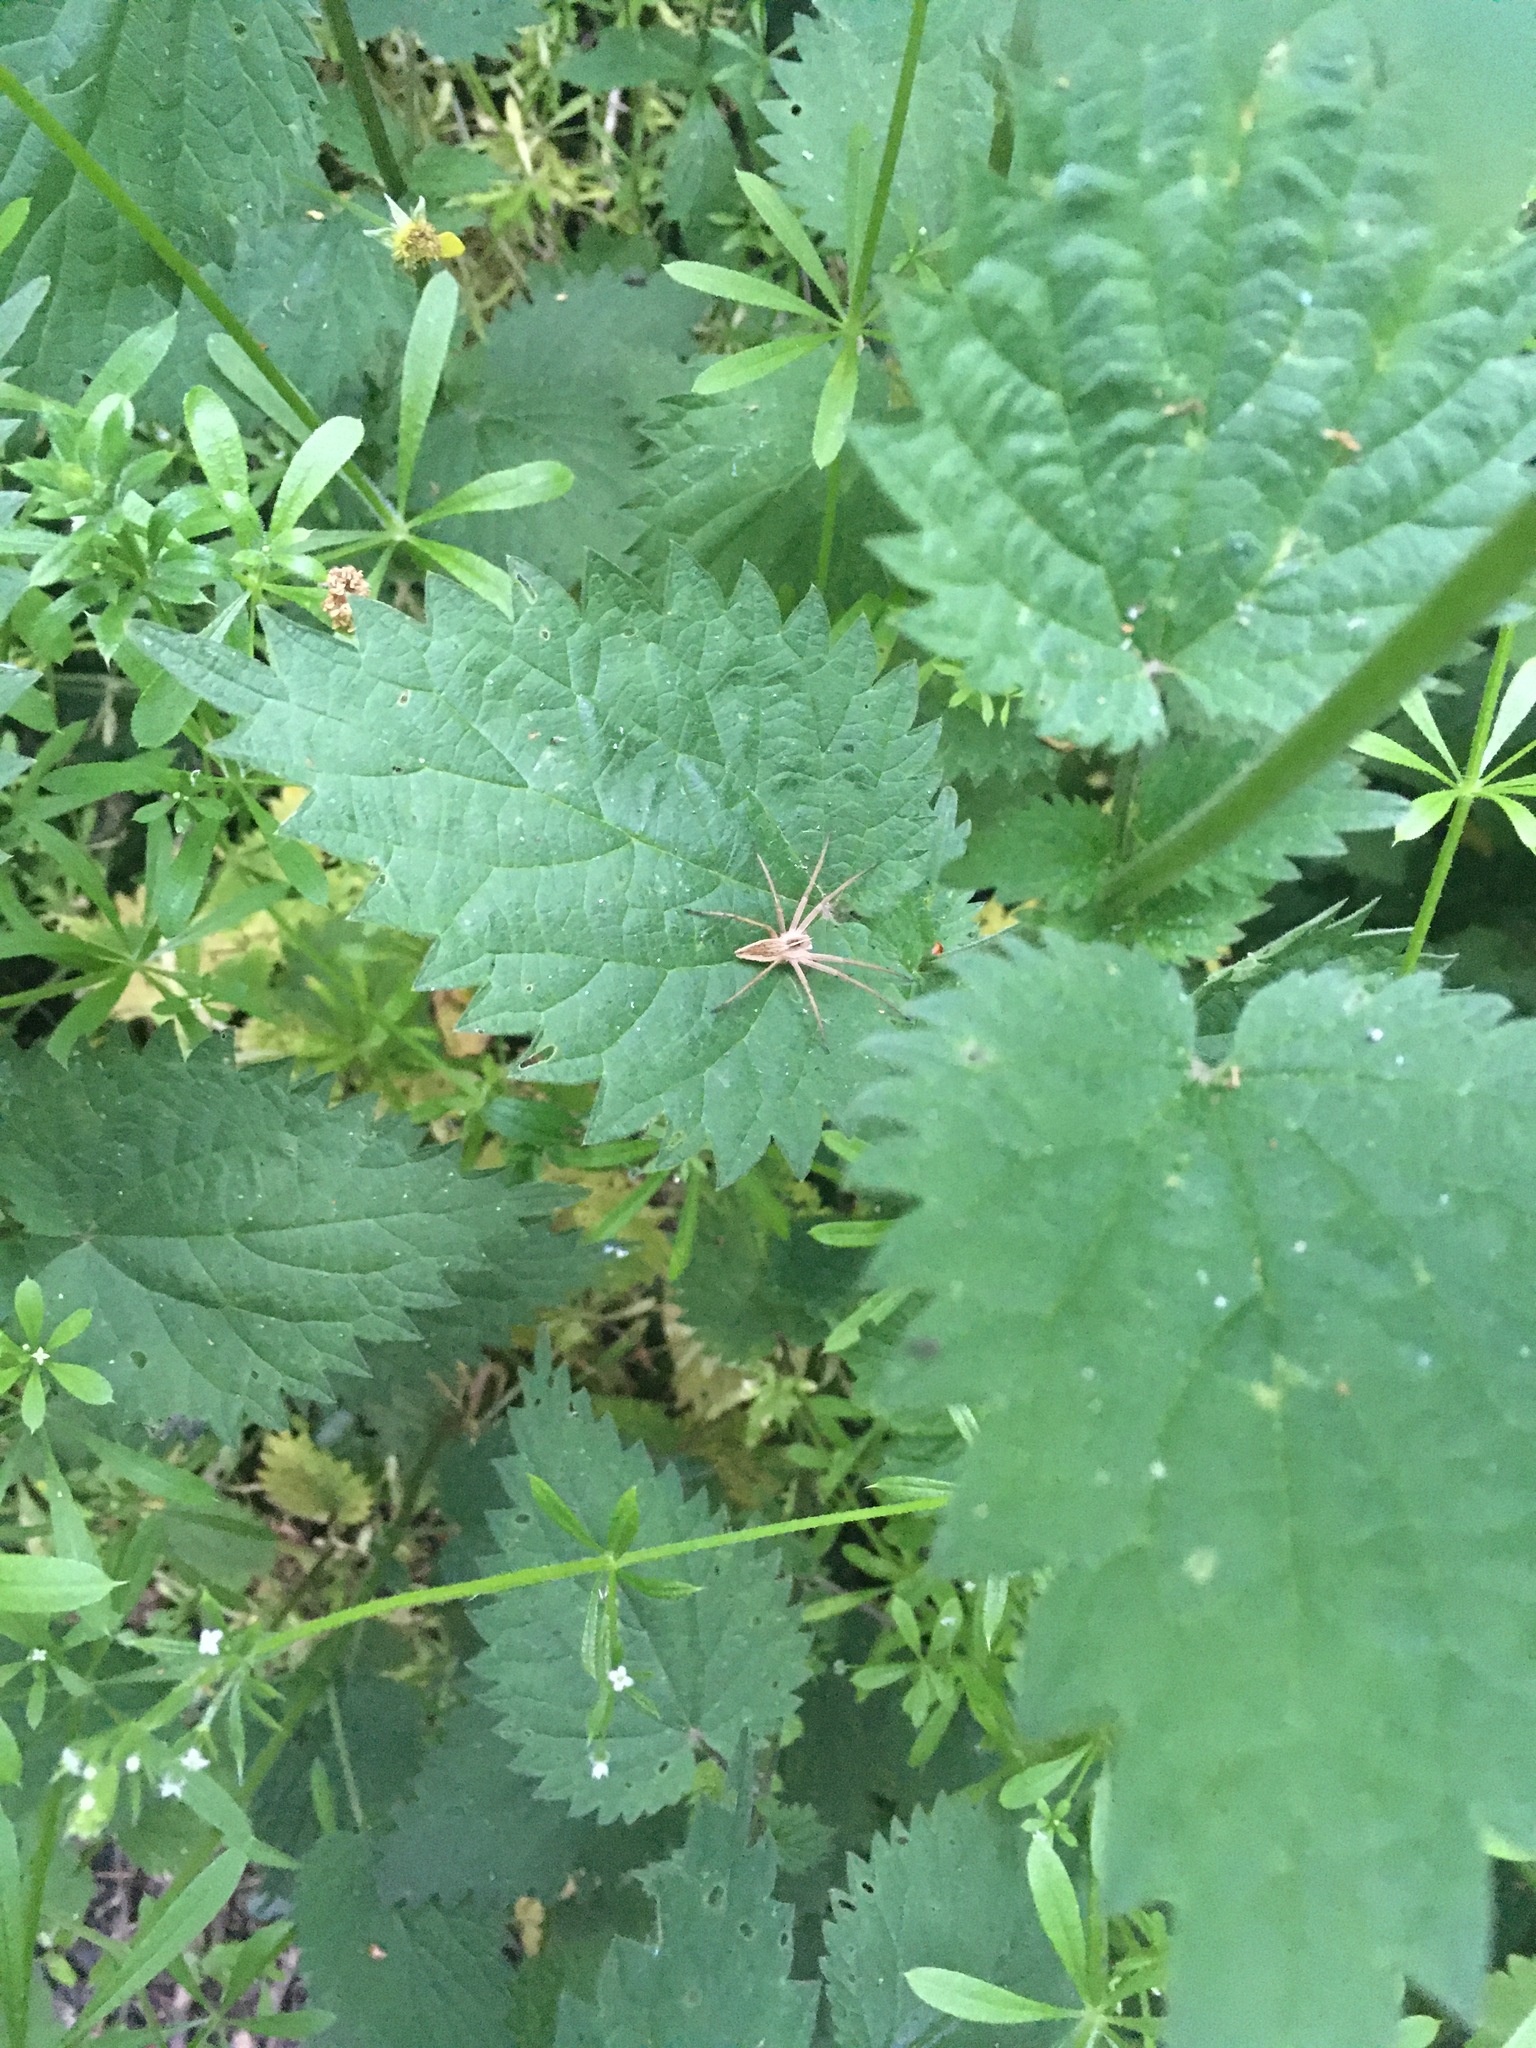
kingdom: Animalia
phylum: Arthropoda
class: Arachnida
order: Araneae
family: Pisauridae
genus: Pisaura
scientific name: Pisaura mirabilis
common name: Tent spider
